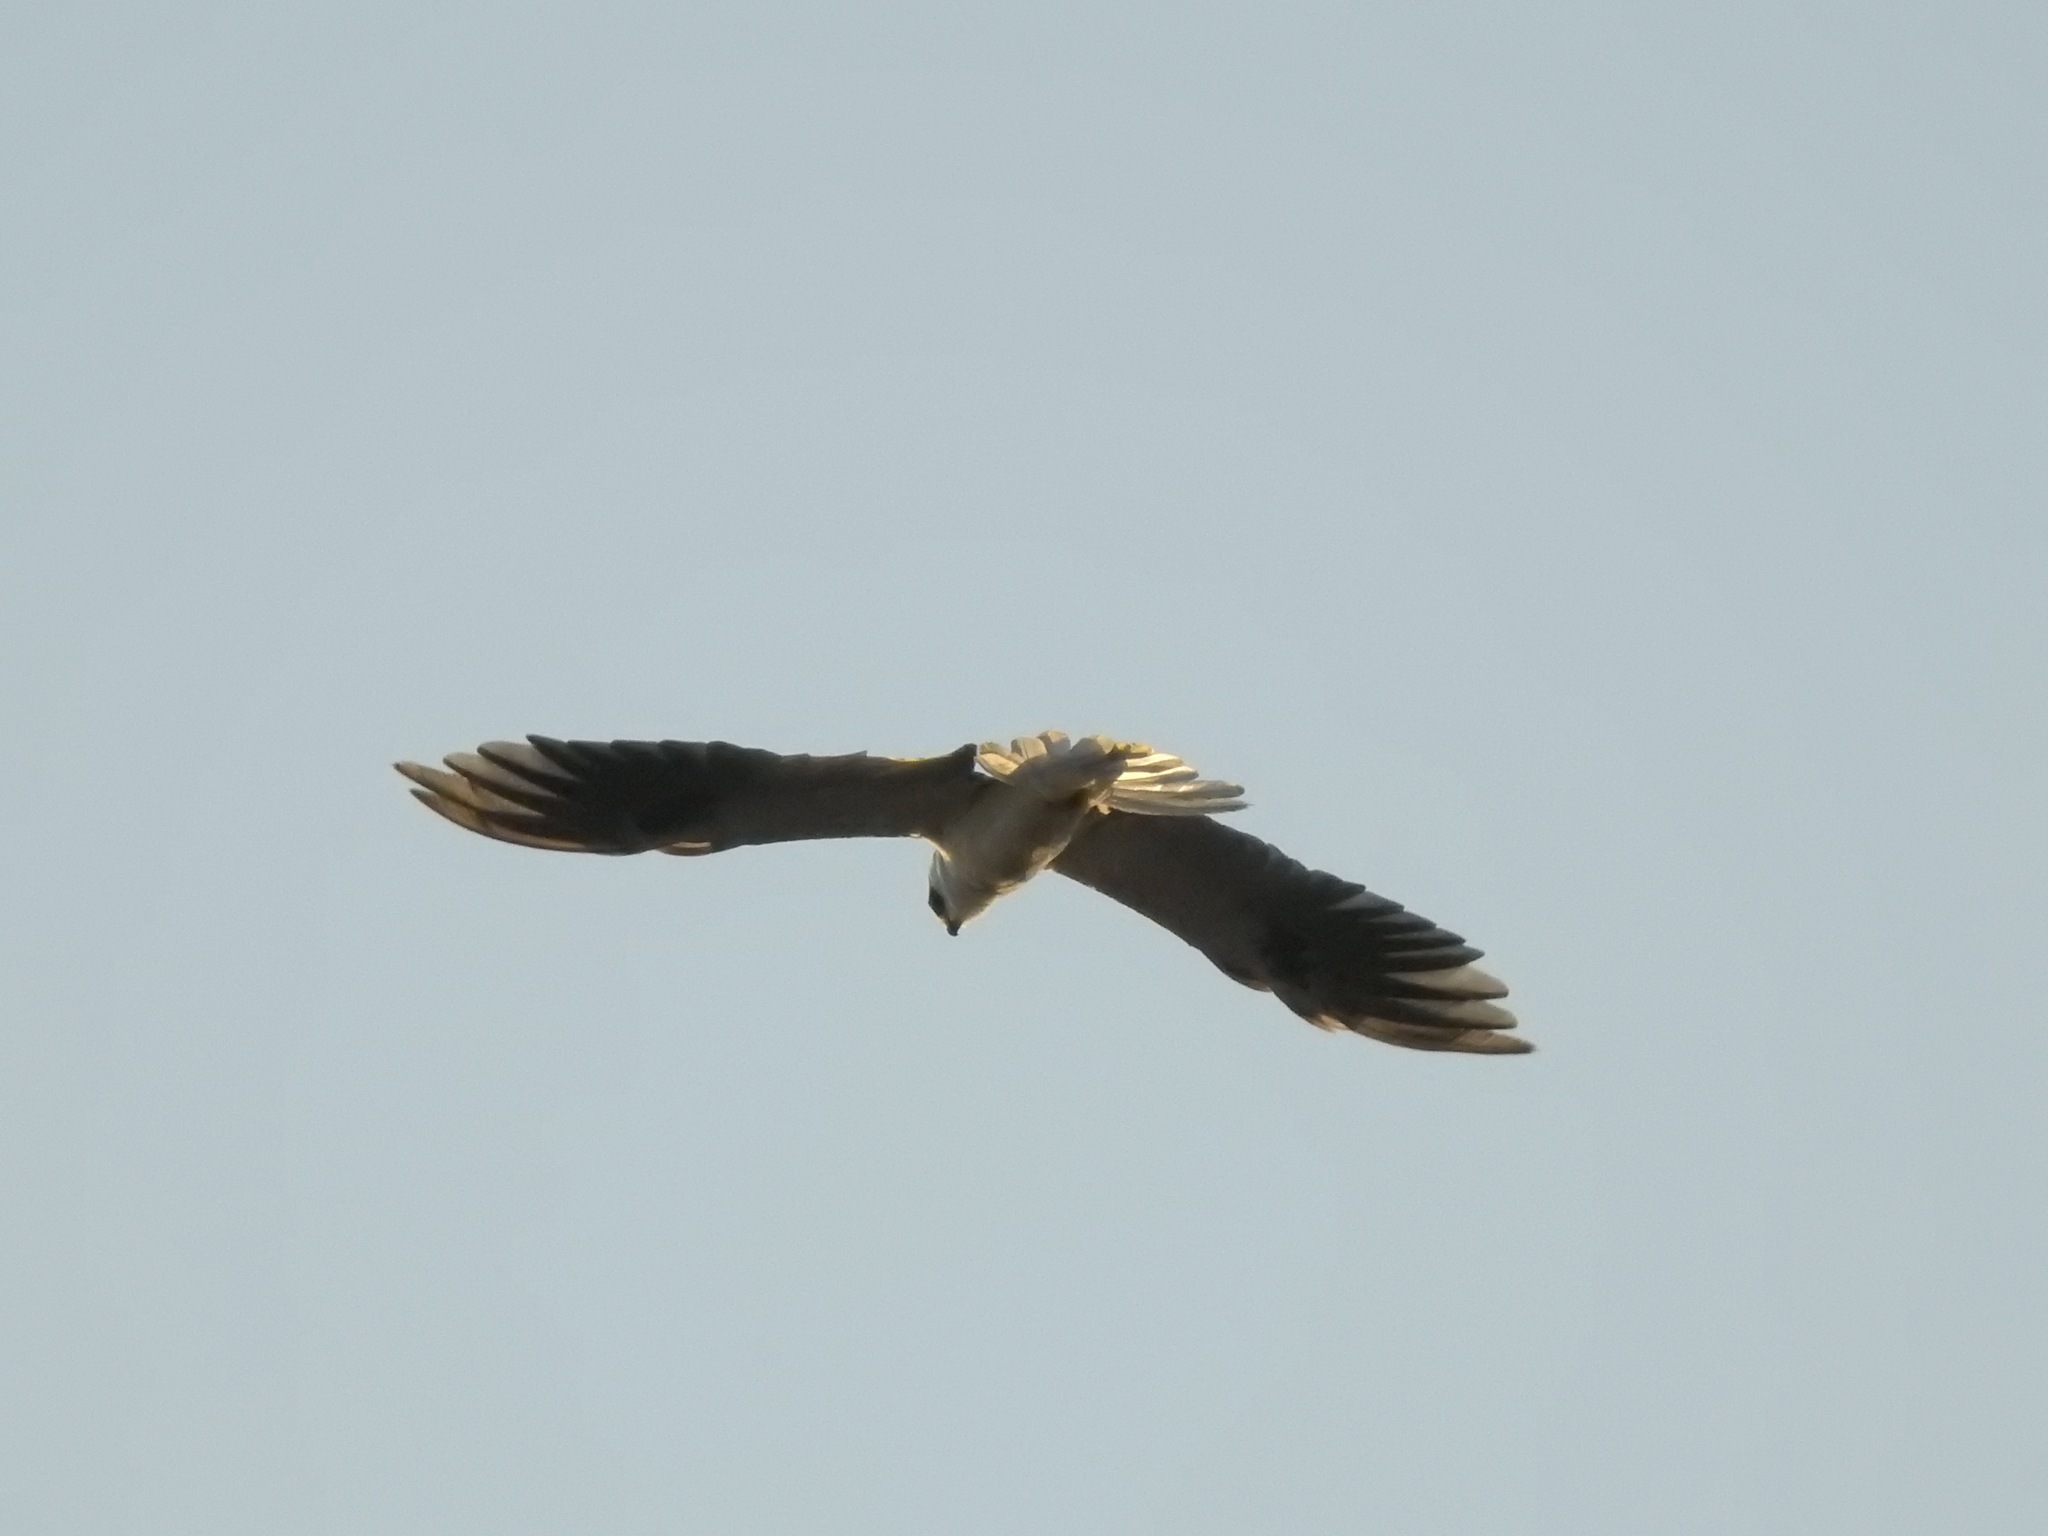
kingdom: Animalia
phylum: Chordata
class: Aves
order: Accipitriformes
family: Accipitridae
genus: Elanus
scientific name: Elanus leucurus
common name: White-tailed kite
